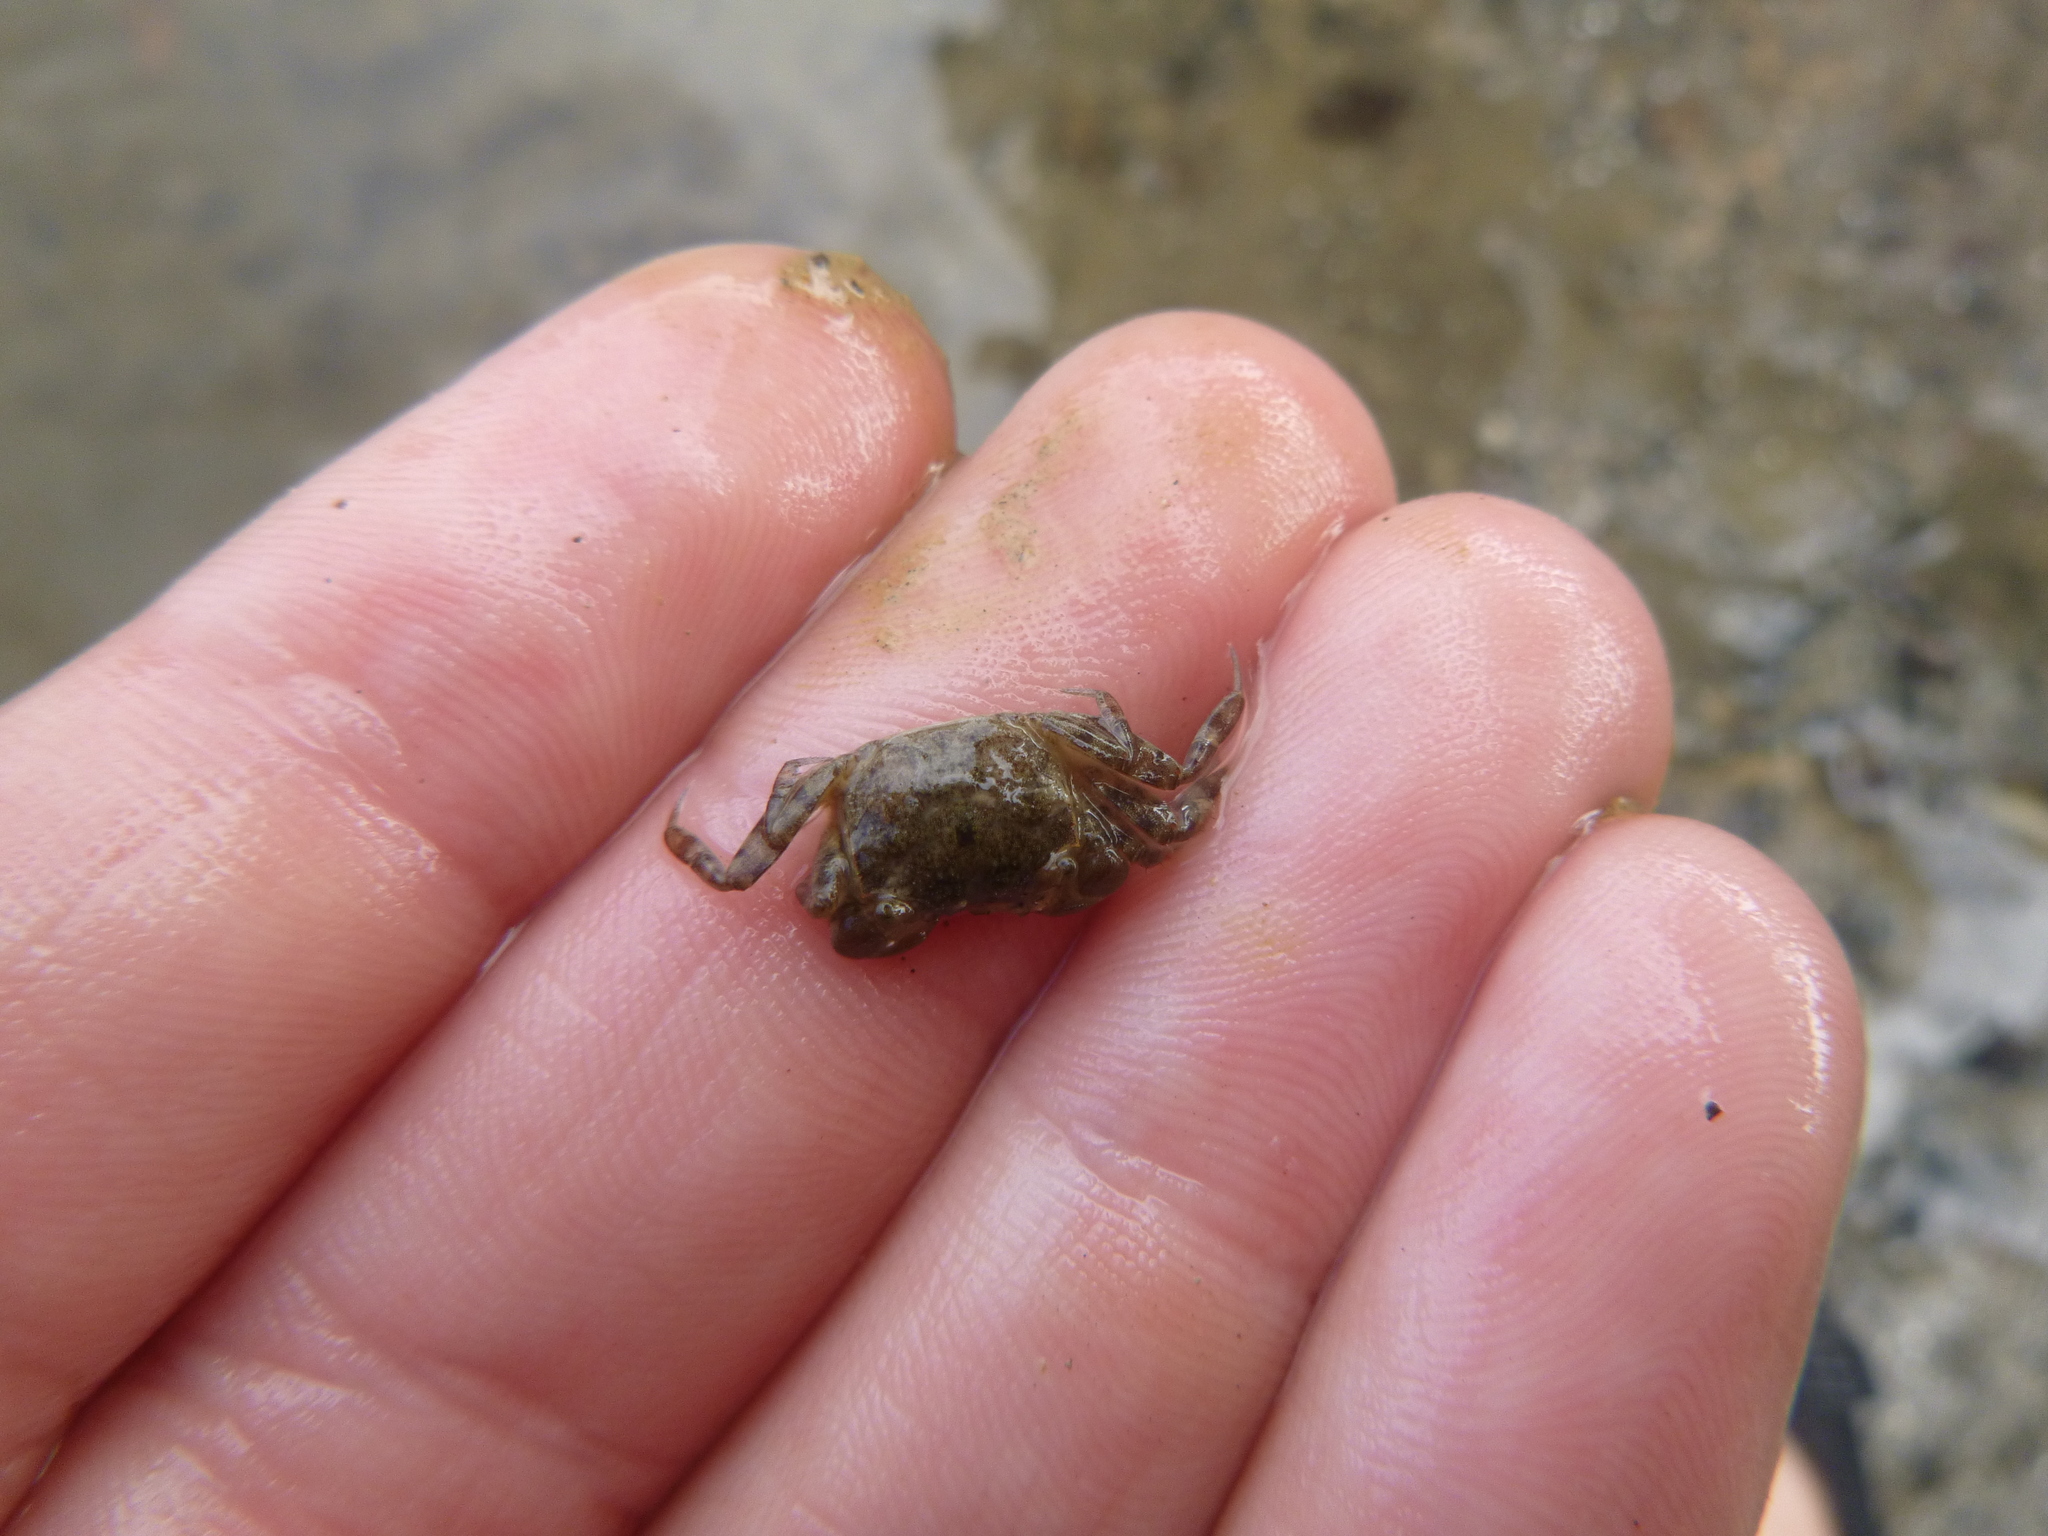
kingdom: Animalia
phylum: Arthropoda
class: Malacostraca
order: Decapoda
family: Varunidae
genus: Austrohelice
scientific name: Austrohelice crassa
